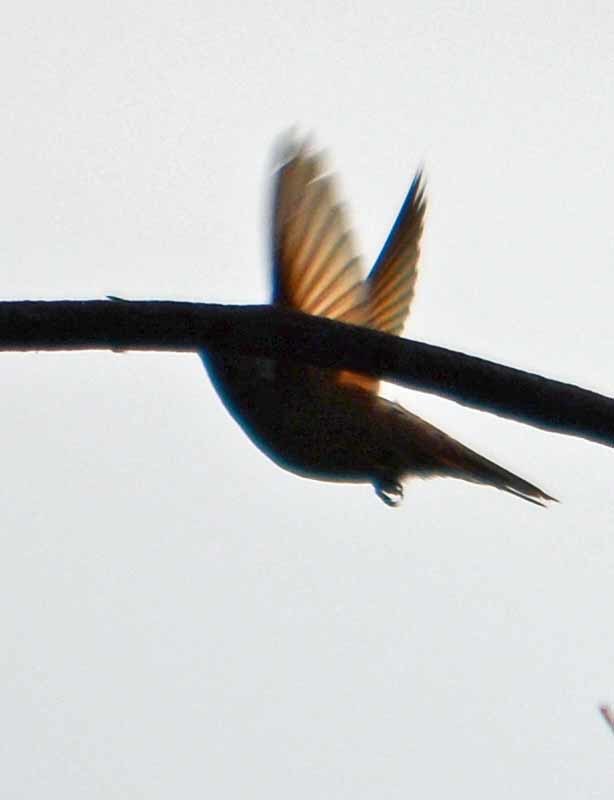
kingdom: Animalia
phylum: Chordata
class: Aves
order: Apodiformes
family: Trochilidae
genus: Saucerottia
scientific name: Saucerottia beryllina
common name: Berylline hummingbird
